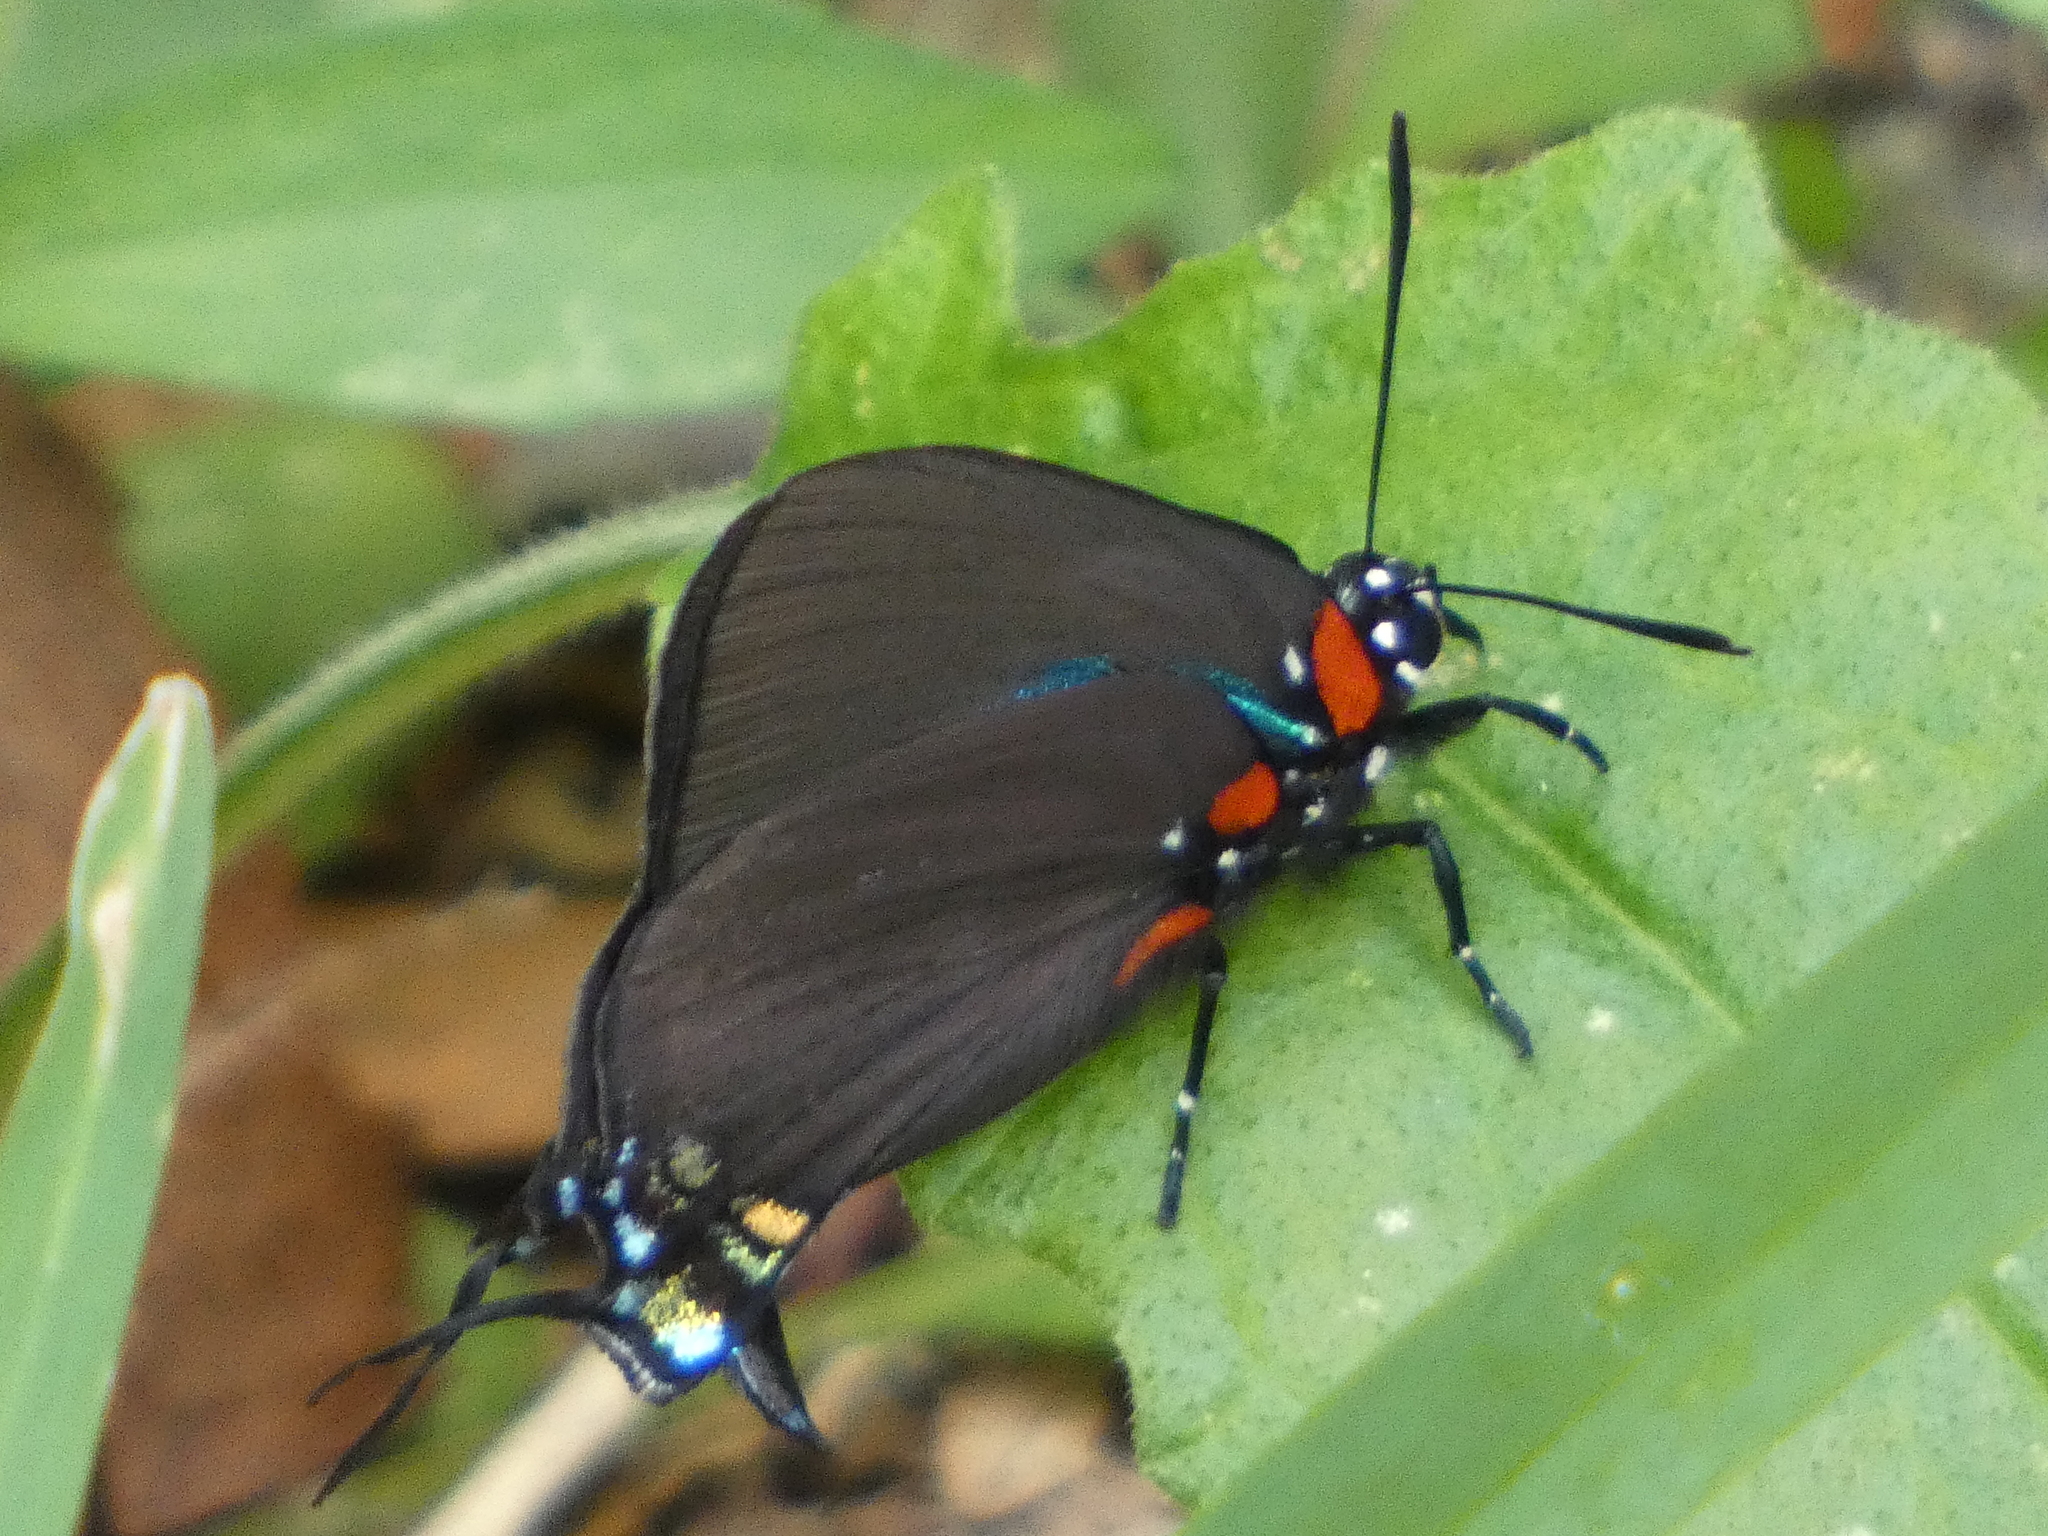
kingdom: Animalia
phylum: Arthropoda
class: Insecta
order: Lepidoptera
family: Lycaenidae
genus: Atlides
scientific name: Atlides halesus
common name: Great purple hairstreak
